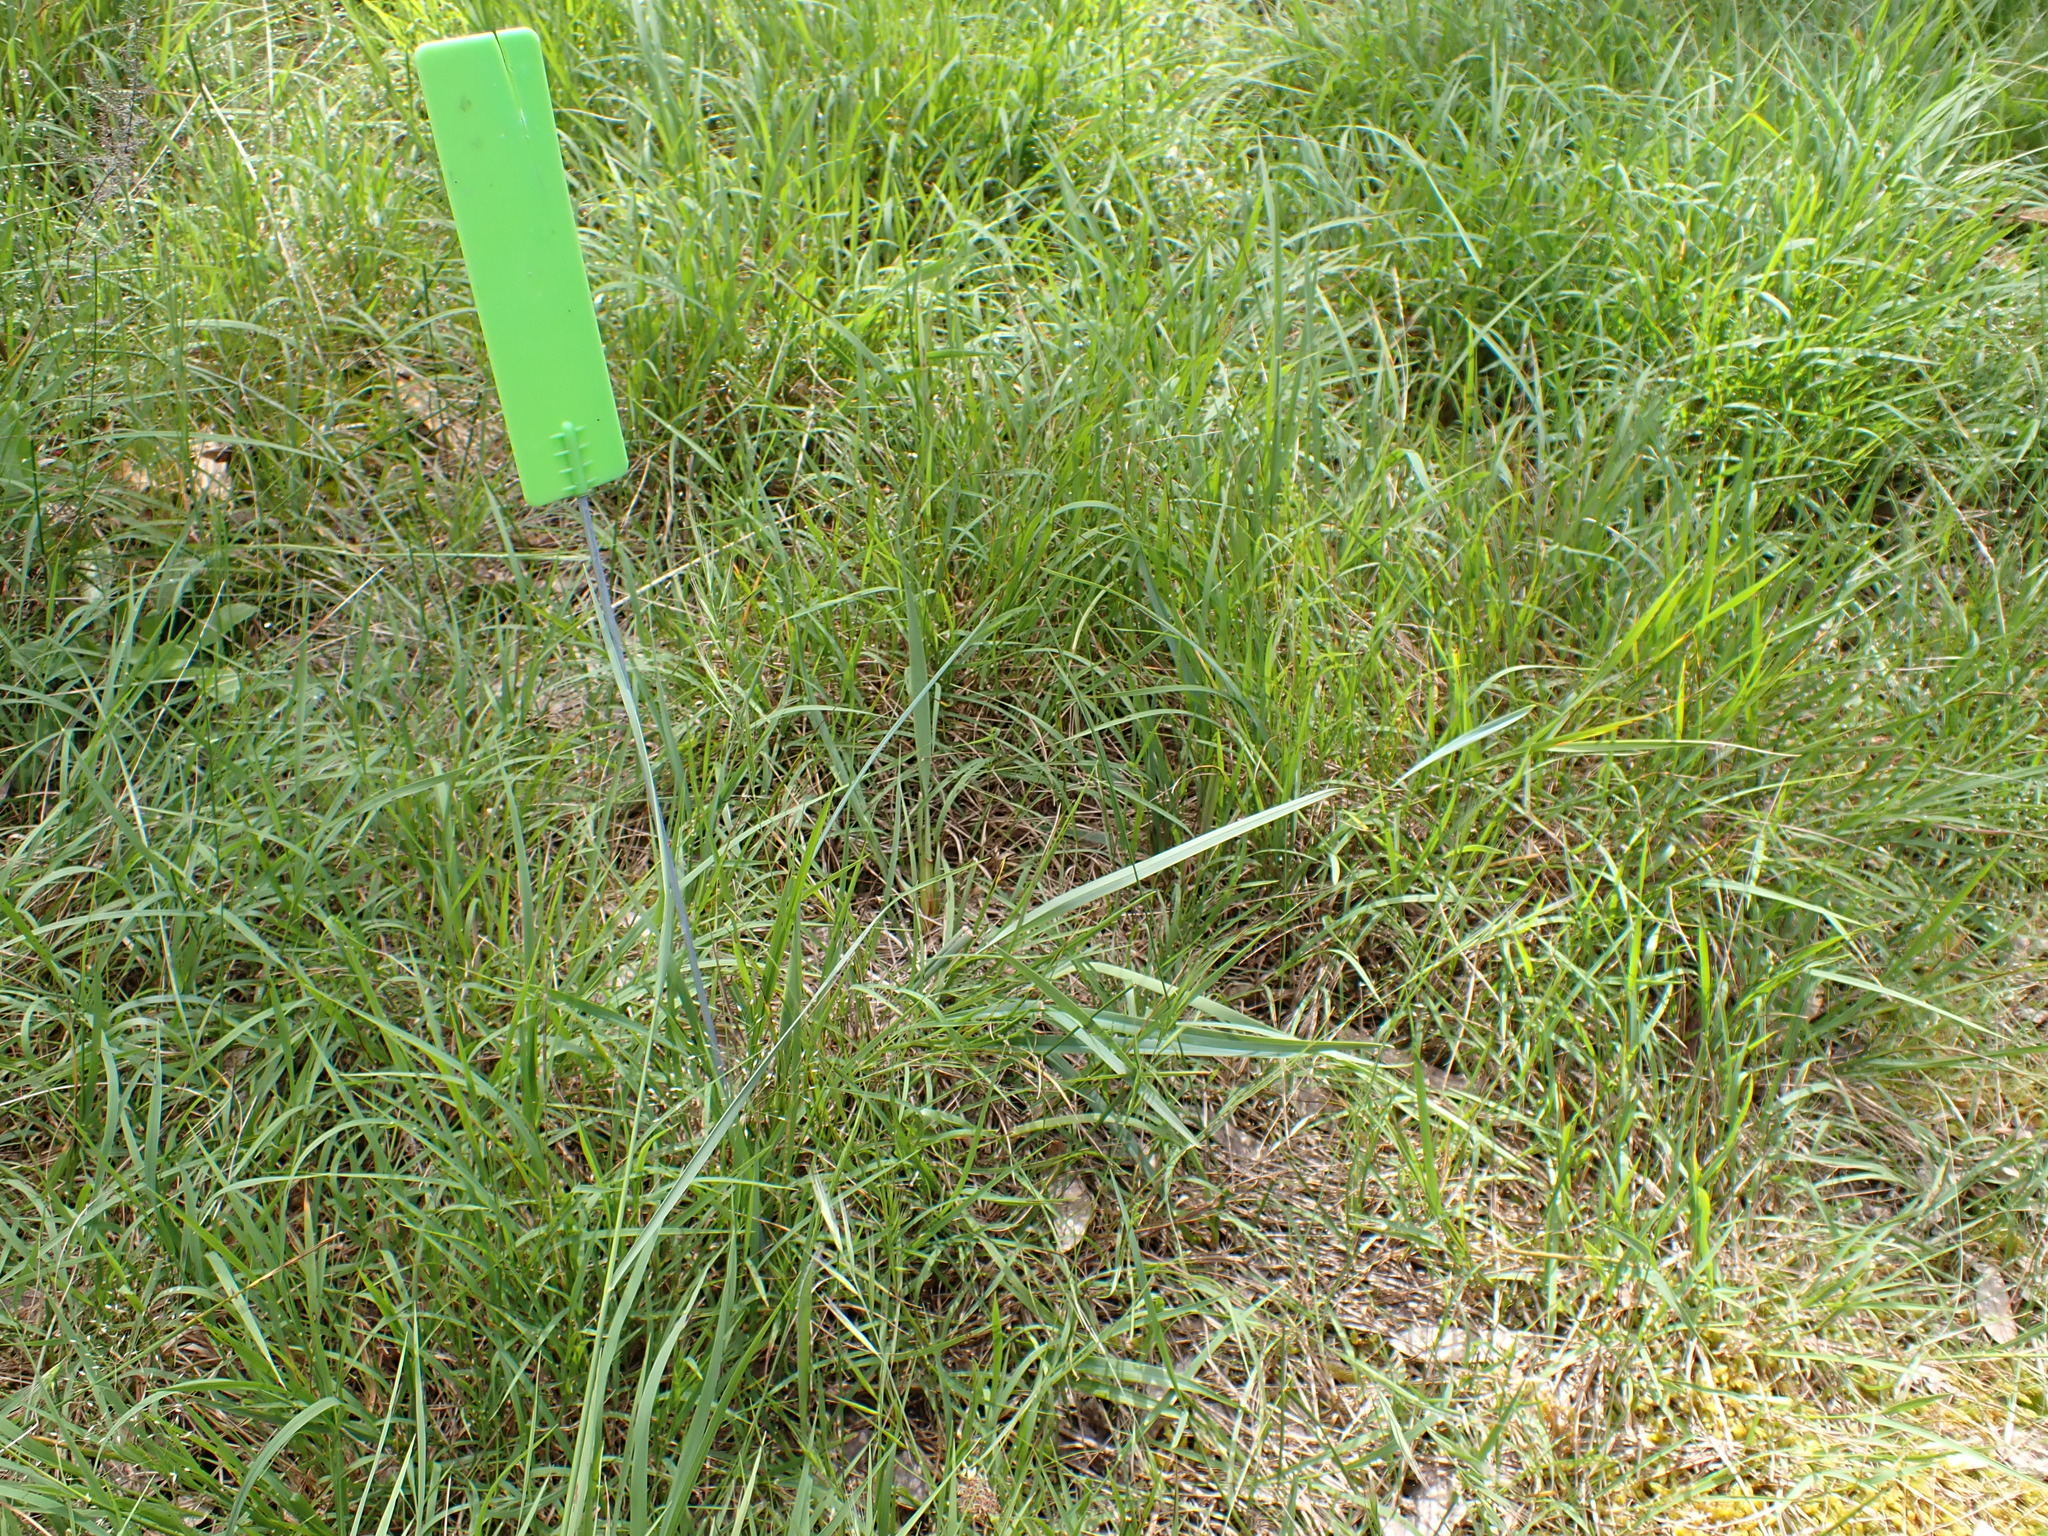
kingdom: Plantae
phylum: Tracheophyta
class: Liliopsida
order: Asparagales
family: Asphodelaceae
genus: Dianella
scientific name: Dianella amoena
